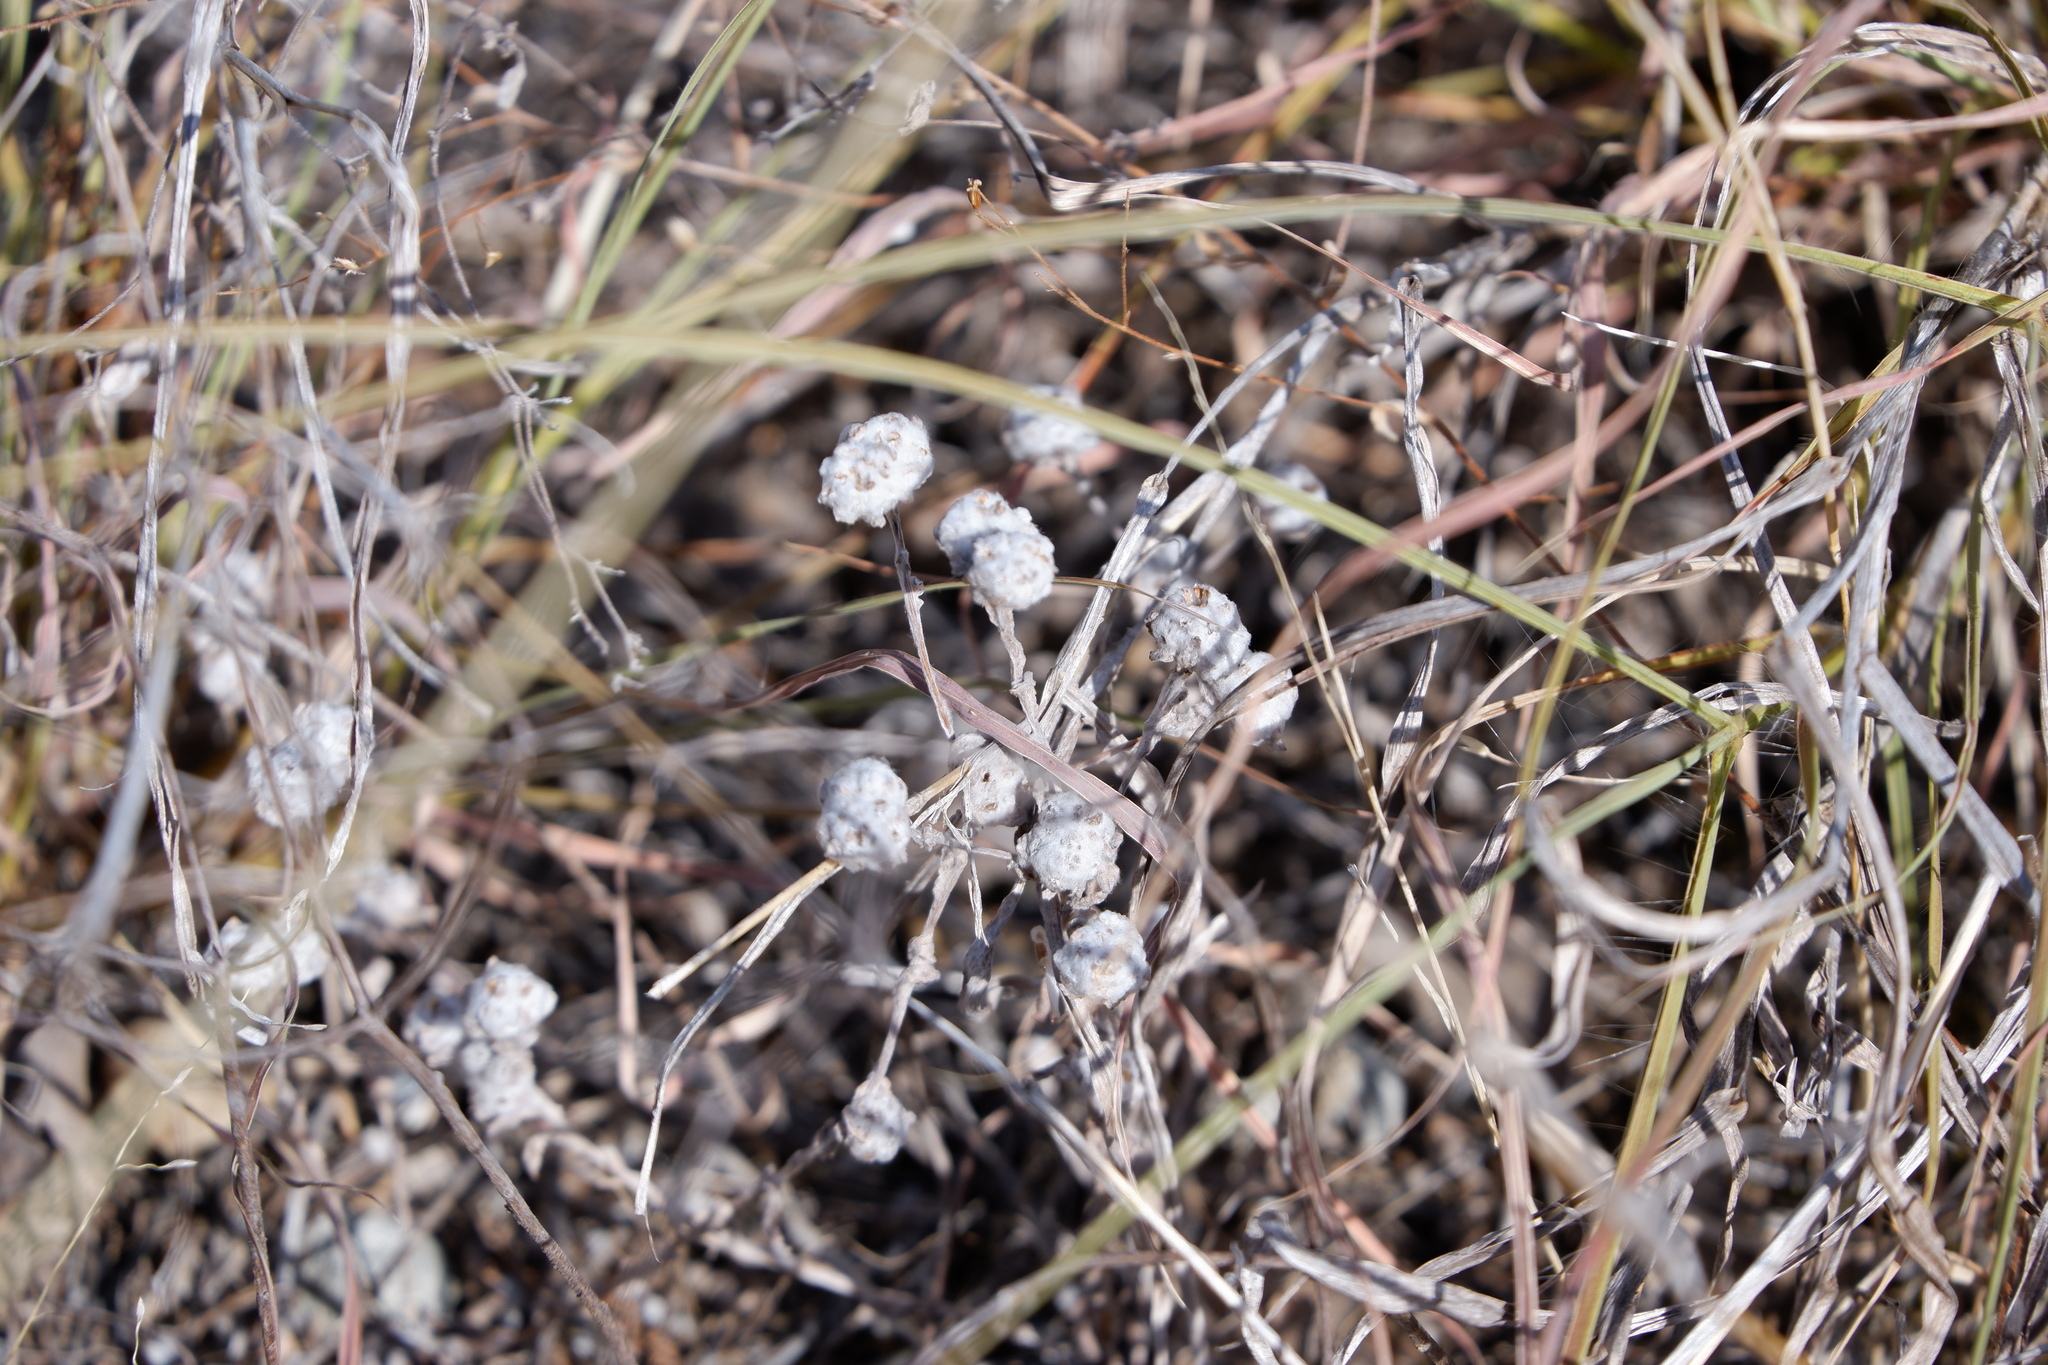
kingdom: Plantae
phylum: Tracheophyta
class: Magnoliopsida
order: Asterales
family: Asteraceae
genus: Diaperia
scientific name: Diaperia verna
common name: Many-stem rabbit-tobacco
